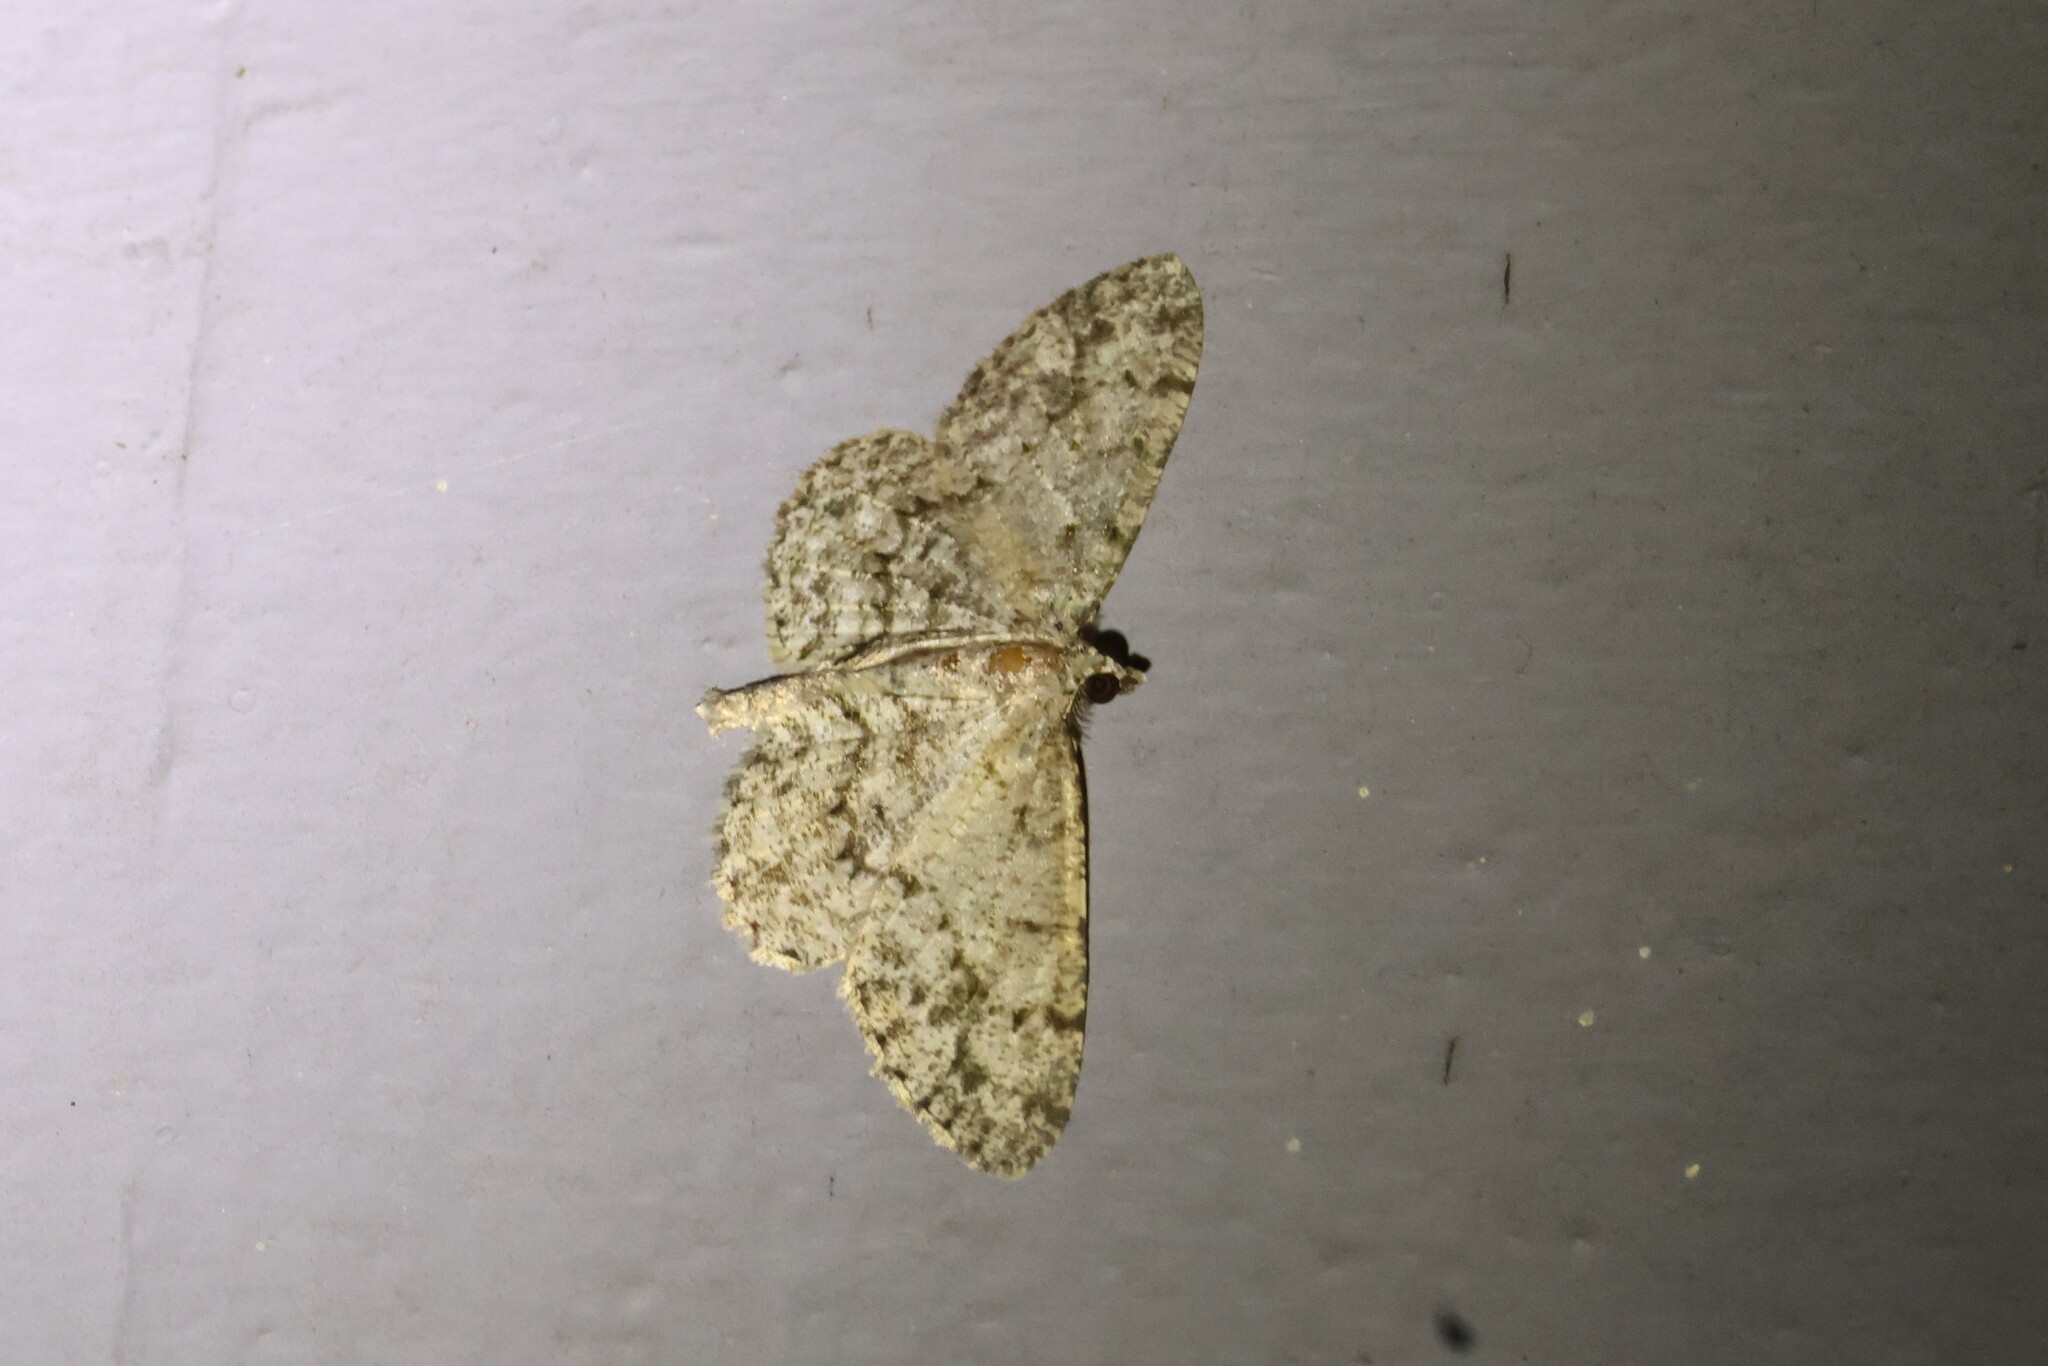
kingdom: Animalia
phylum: Arthropoda
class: Insecta
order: Lepidoptera
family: Geometridae
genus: Protoboarmia
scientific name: Protoboarmia porcelaria
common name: Porcelain gray
